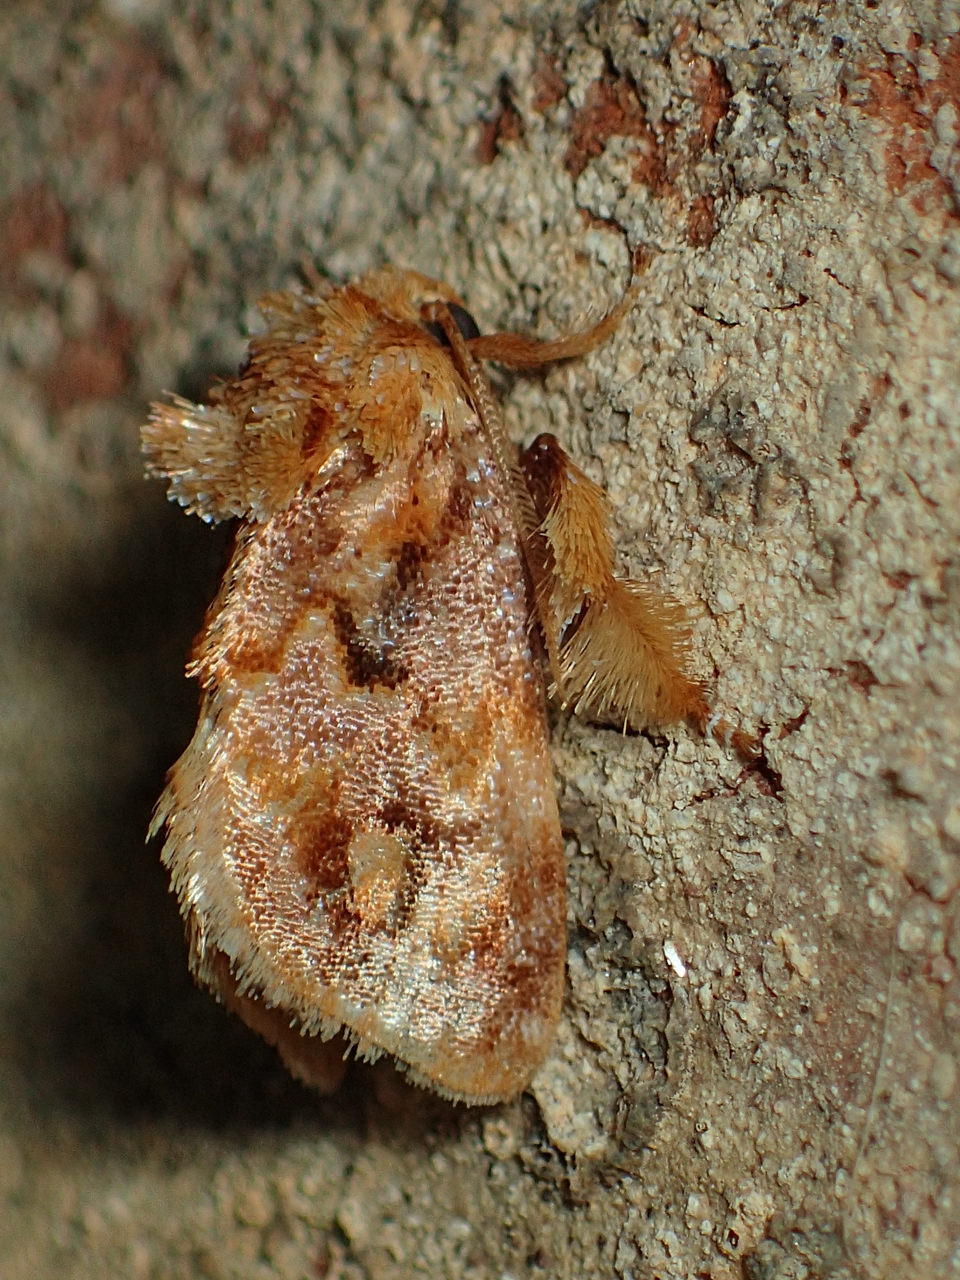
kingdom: Animalia
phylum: Arthropoda
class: Insecta
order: Lepidoptera
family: Limacodidae
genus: Isochaetes
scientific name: Isochaetes beutenmuelleri
